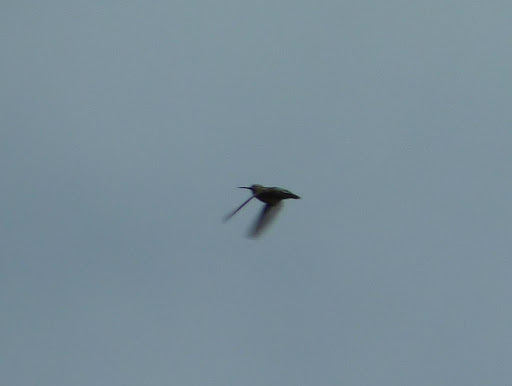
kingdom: Animalia
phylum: Chordata
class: Aves
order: Apodiformes
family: Trochilidae
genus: Archilochus
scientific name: Archilochus colubris
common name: Ruby-throated hummingbird
